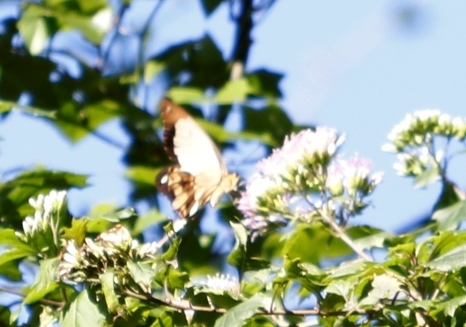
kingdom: Plantae
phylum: Tracheophyta
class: Magnoliopsida
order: Asterales
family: Asteraceae
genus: Gymnanthemum
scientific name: Gymnanthemum capense
